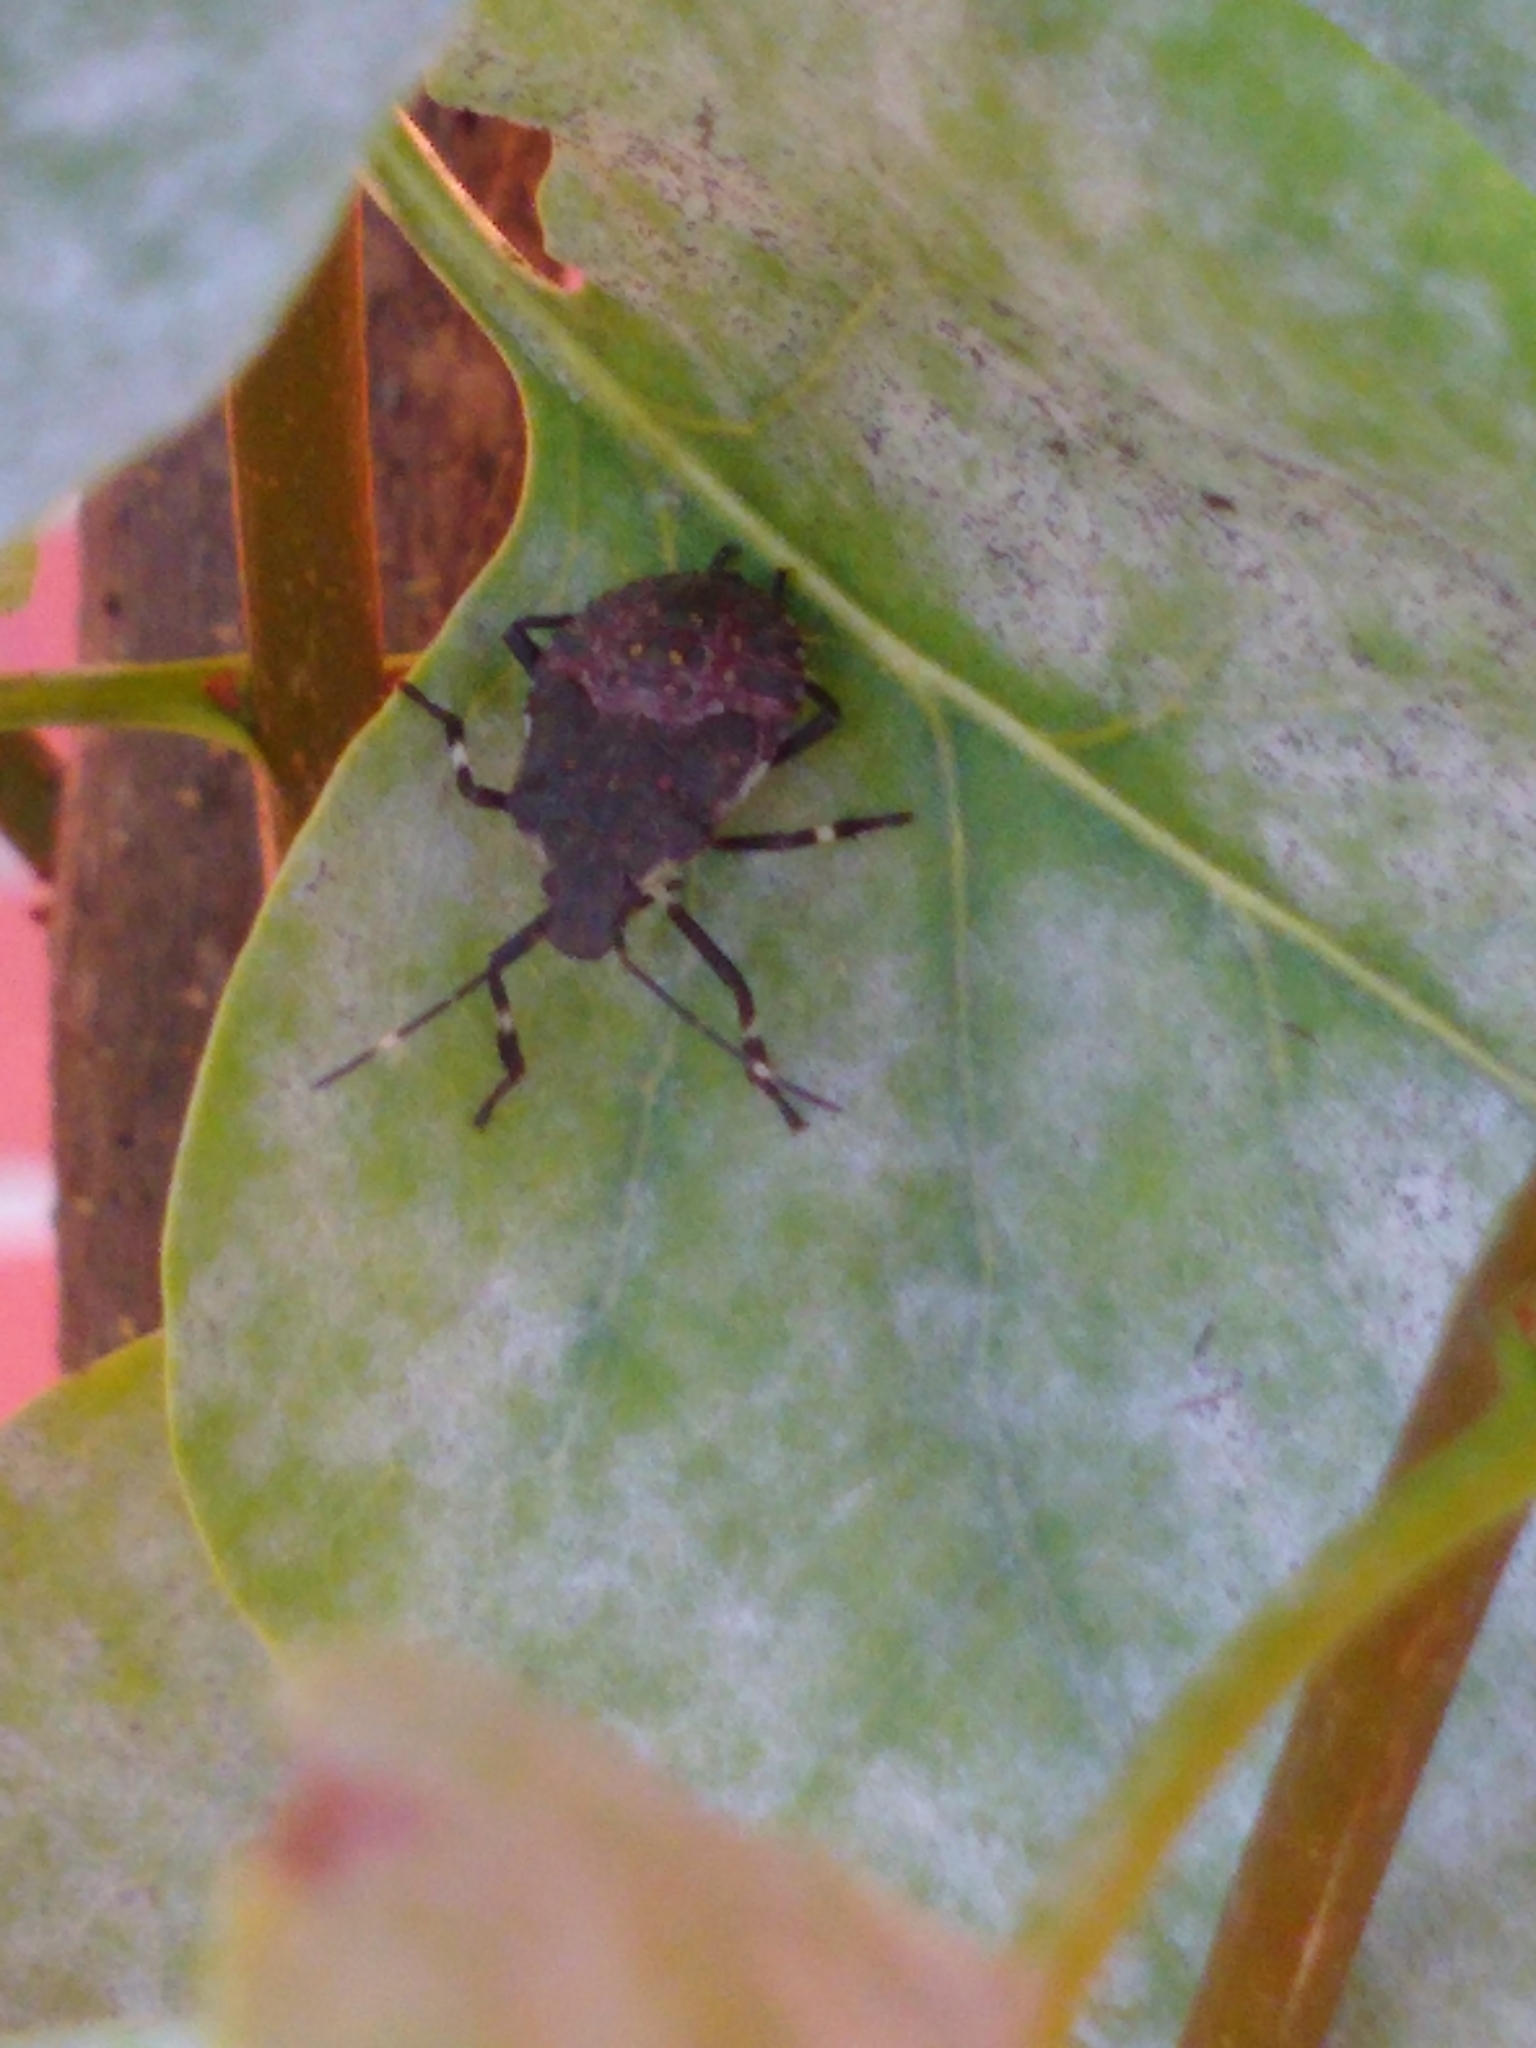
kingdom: Animalia
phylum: Arthropoda
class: Insecta
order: Hemiptera
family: Pentatomidae
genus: Halyomorpha
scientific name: Halyomorpha halys
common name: Brown marmorated stink bug
